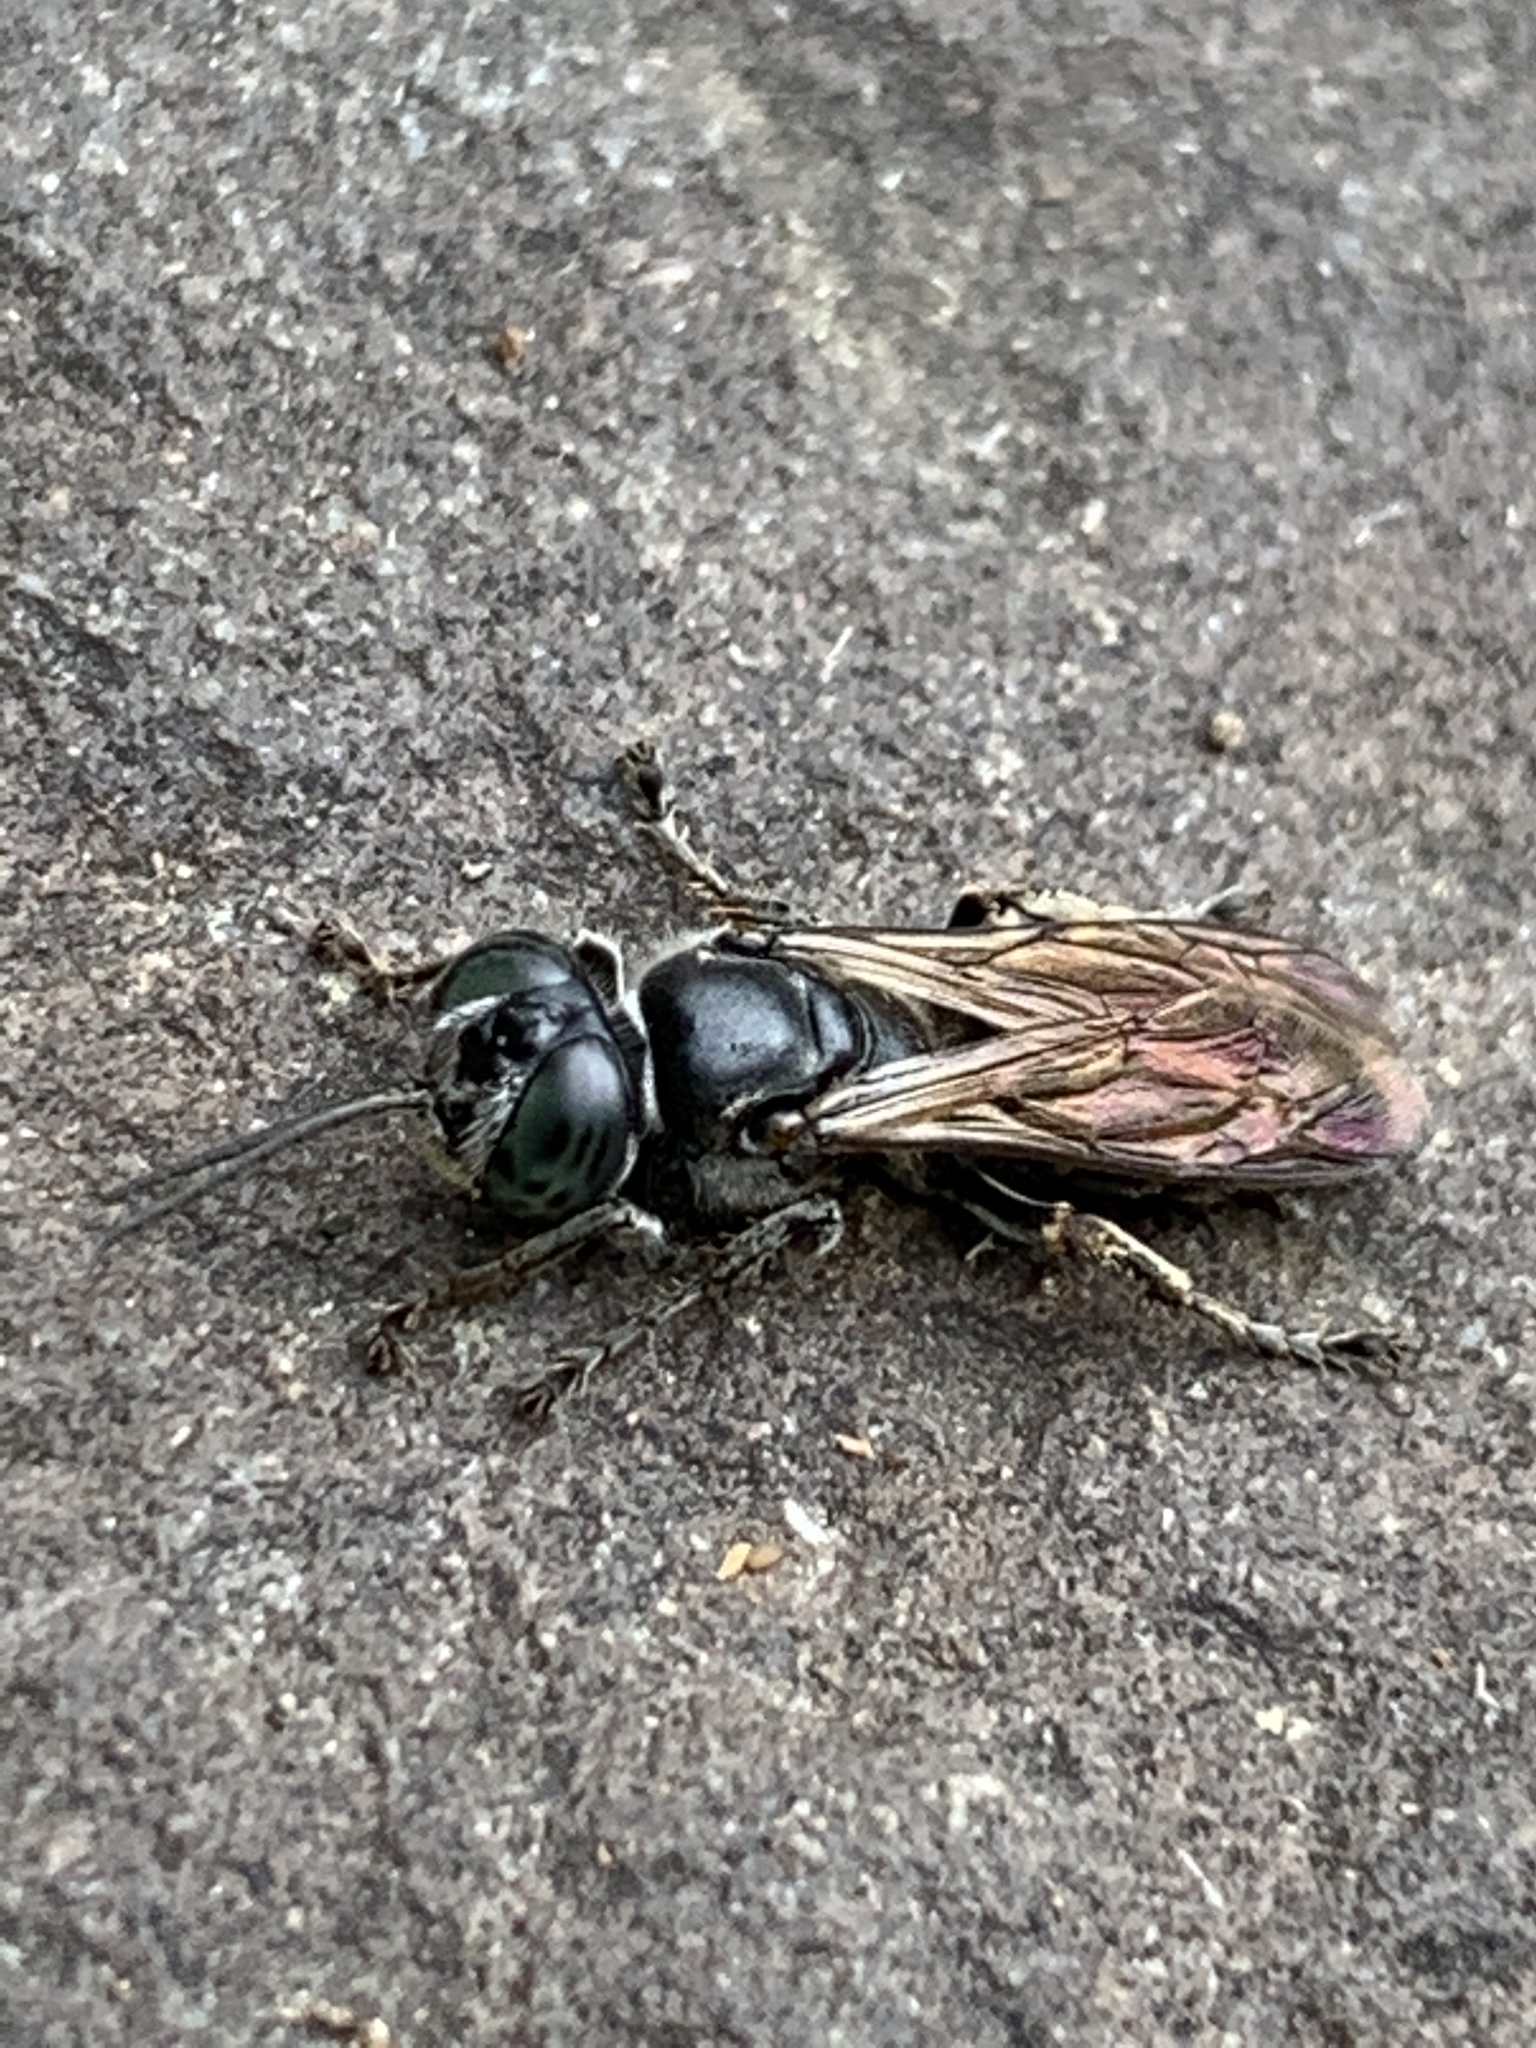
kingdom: Animalia
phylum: Arthropoda
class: Insecta
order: Hymenoptera
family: Crabronidae
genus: Tachytes
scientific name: Tachytes
